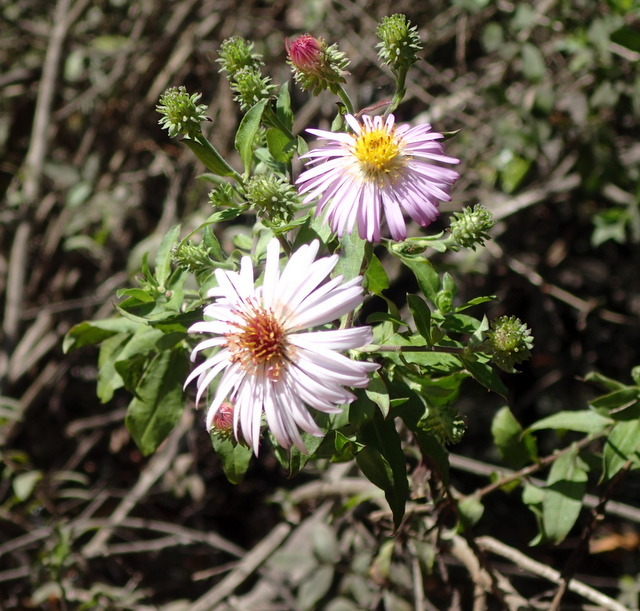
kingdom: Plantae
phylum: Tracheophyta
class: Magnoliopsida
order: Asterales
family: Asteraceae
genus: Ampelaster
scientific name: Ampelaster carolinianus
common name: Climbing aster
